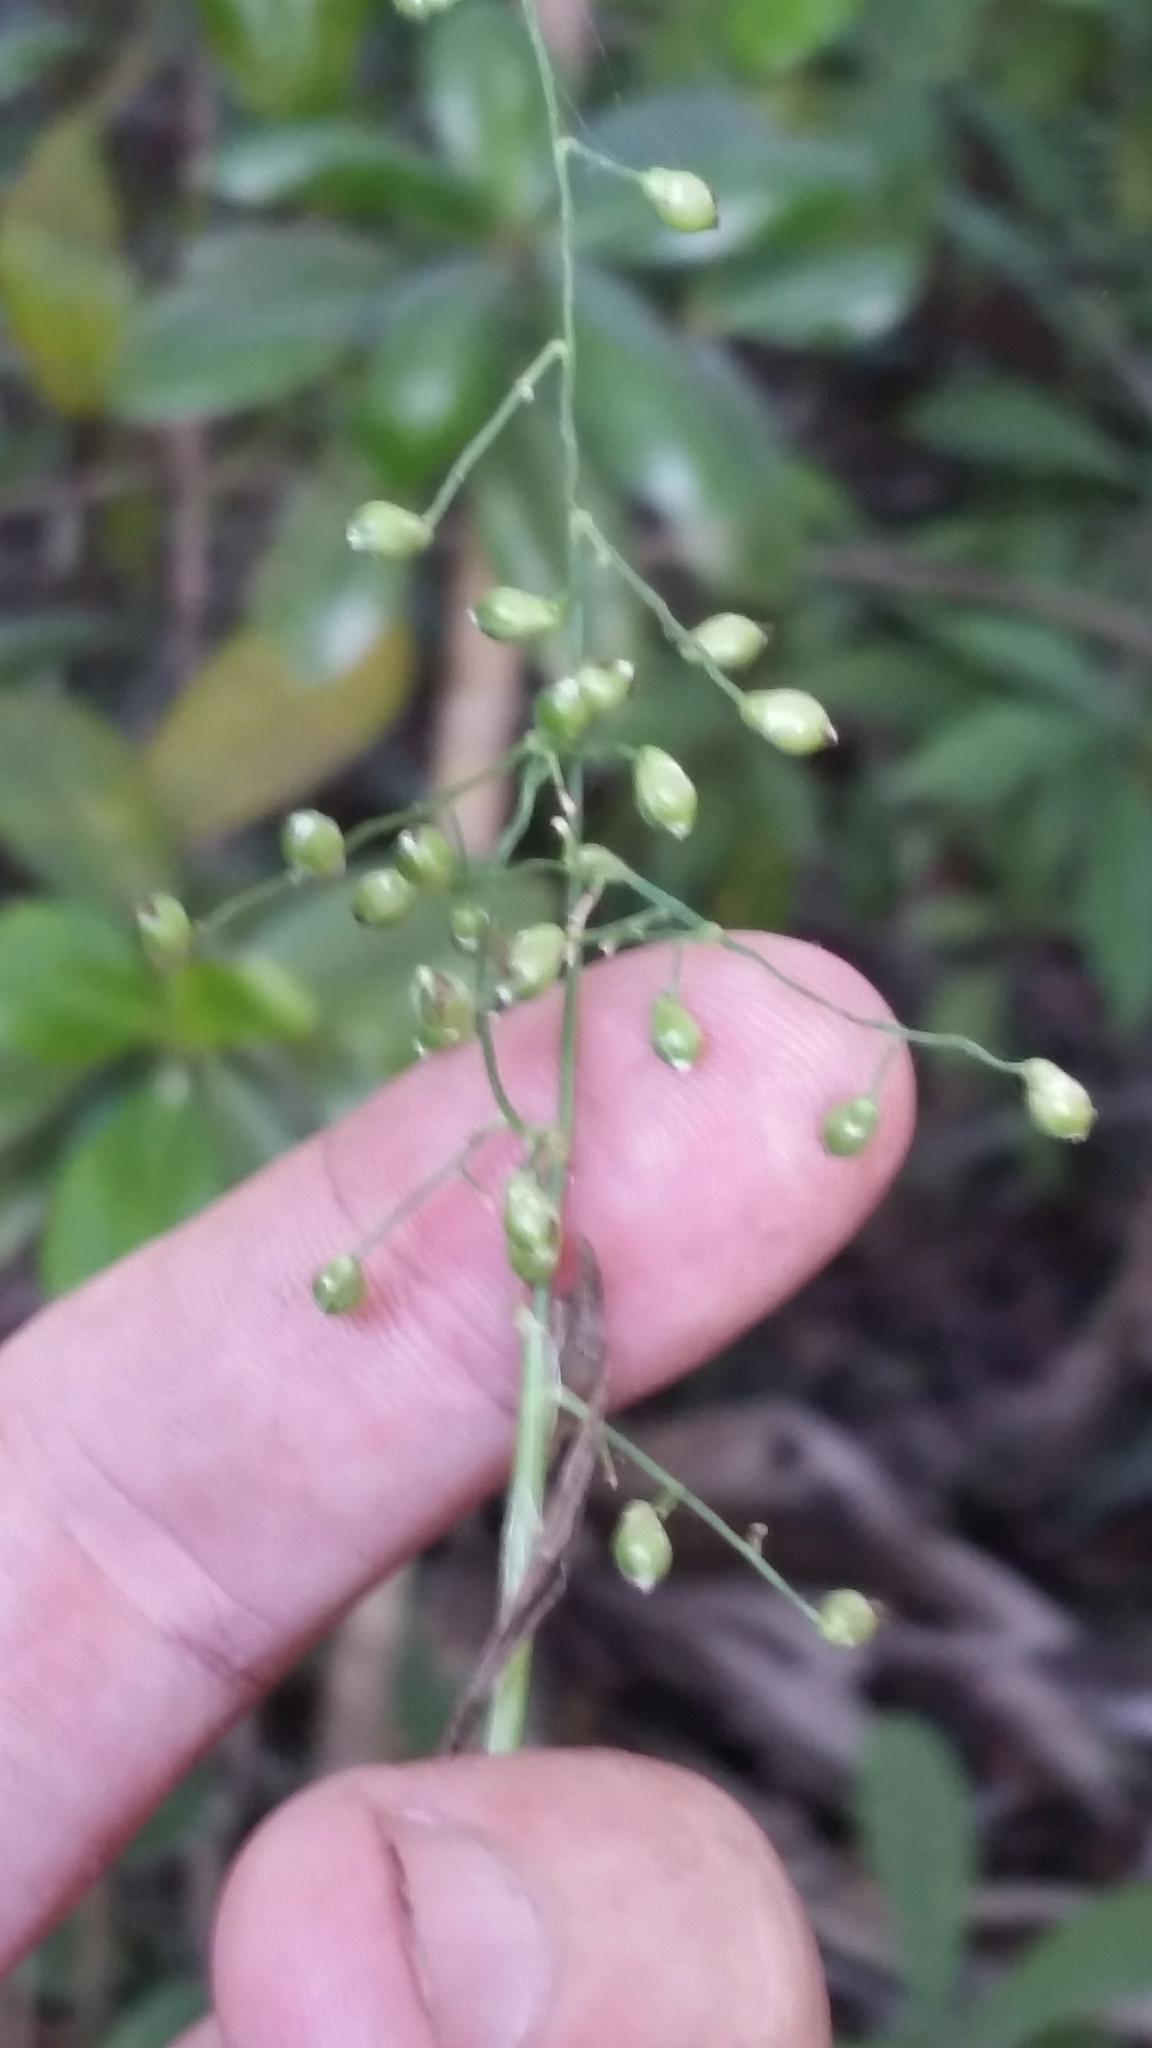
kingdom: Plantae
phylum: Tracheophyta
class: Liliopsida
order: Poales
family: Poaceae
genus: Lasiacis
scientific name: Lasiacis divaricata
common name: Smallcane
